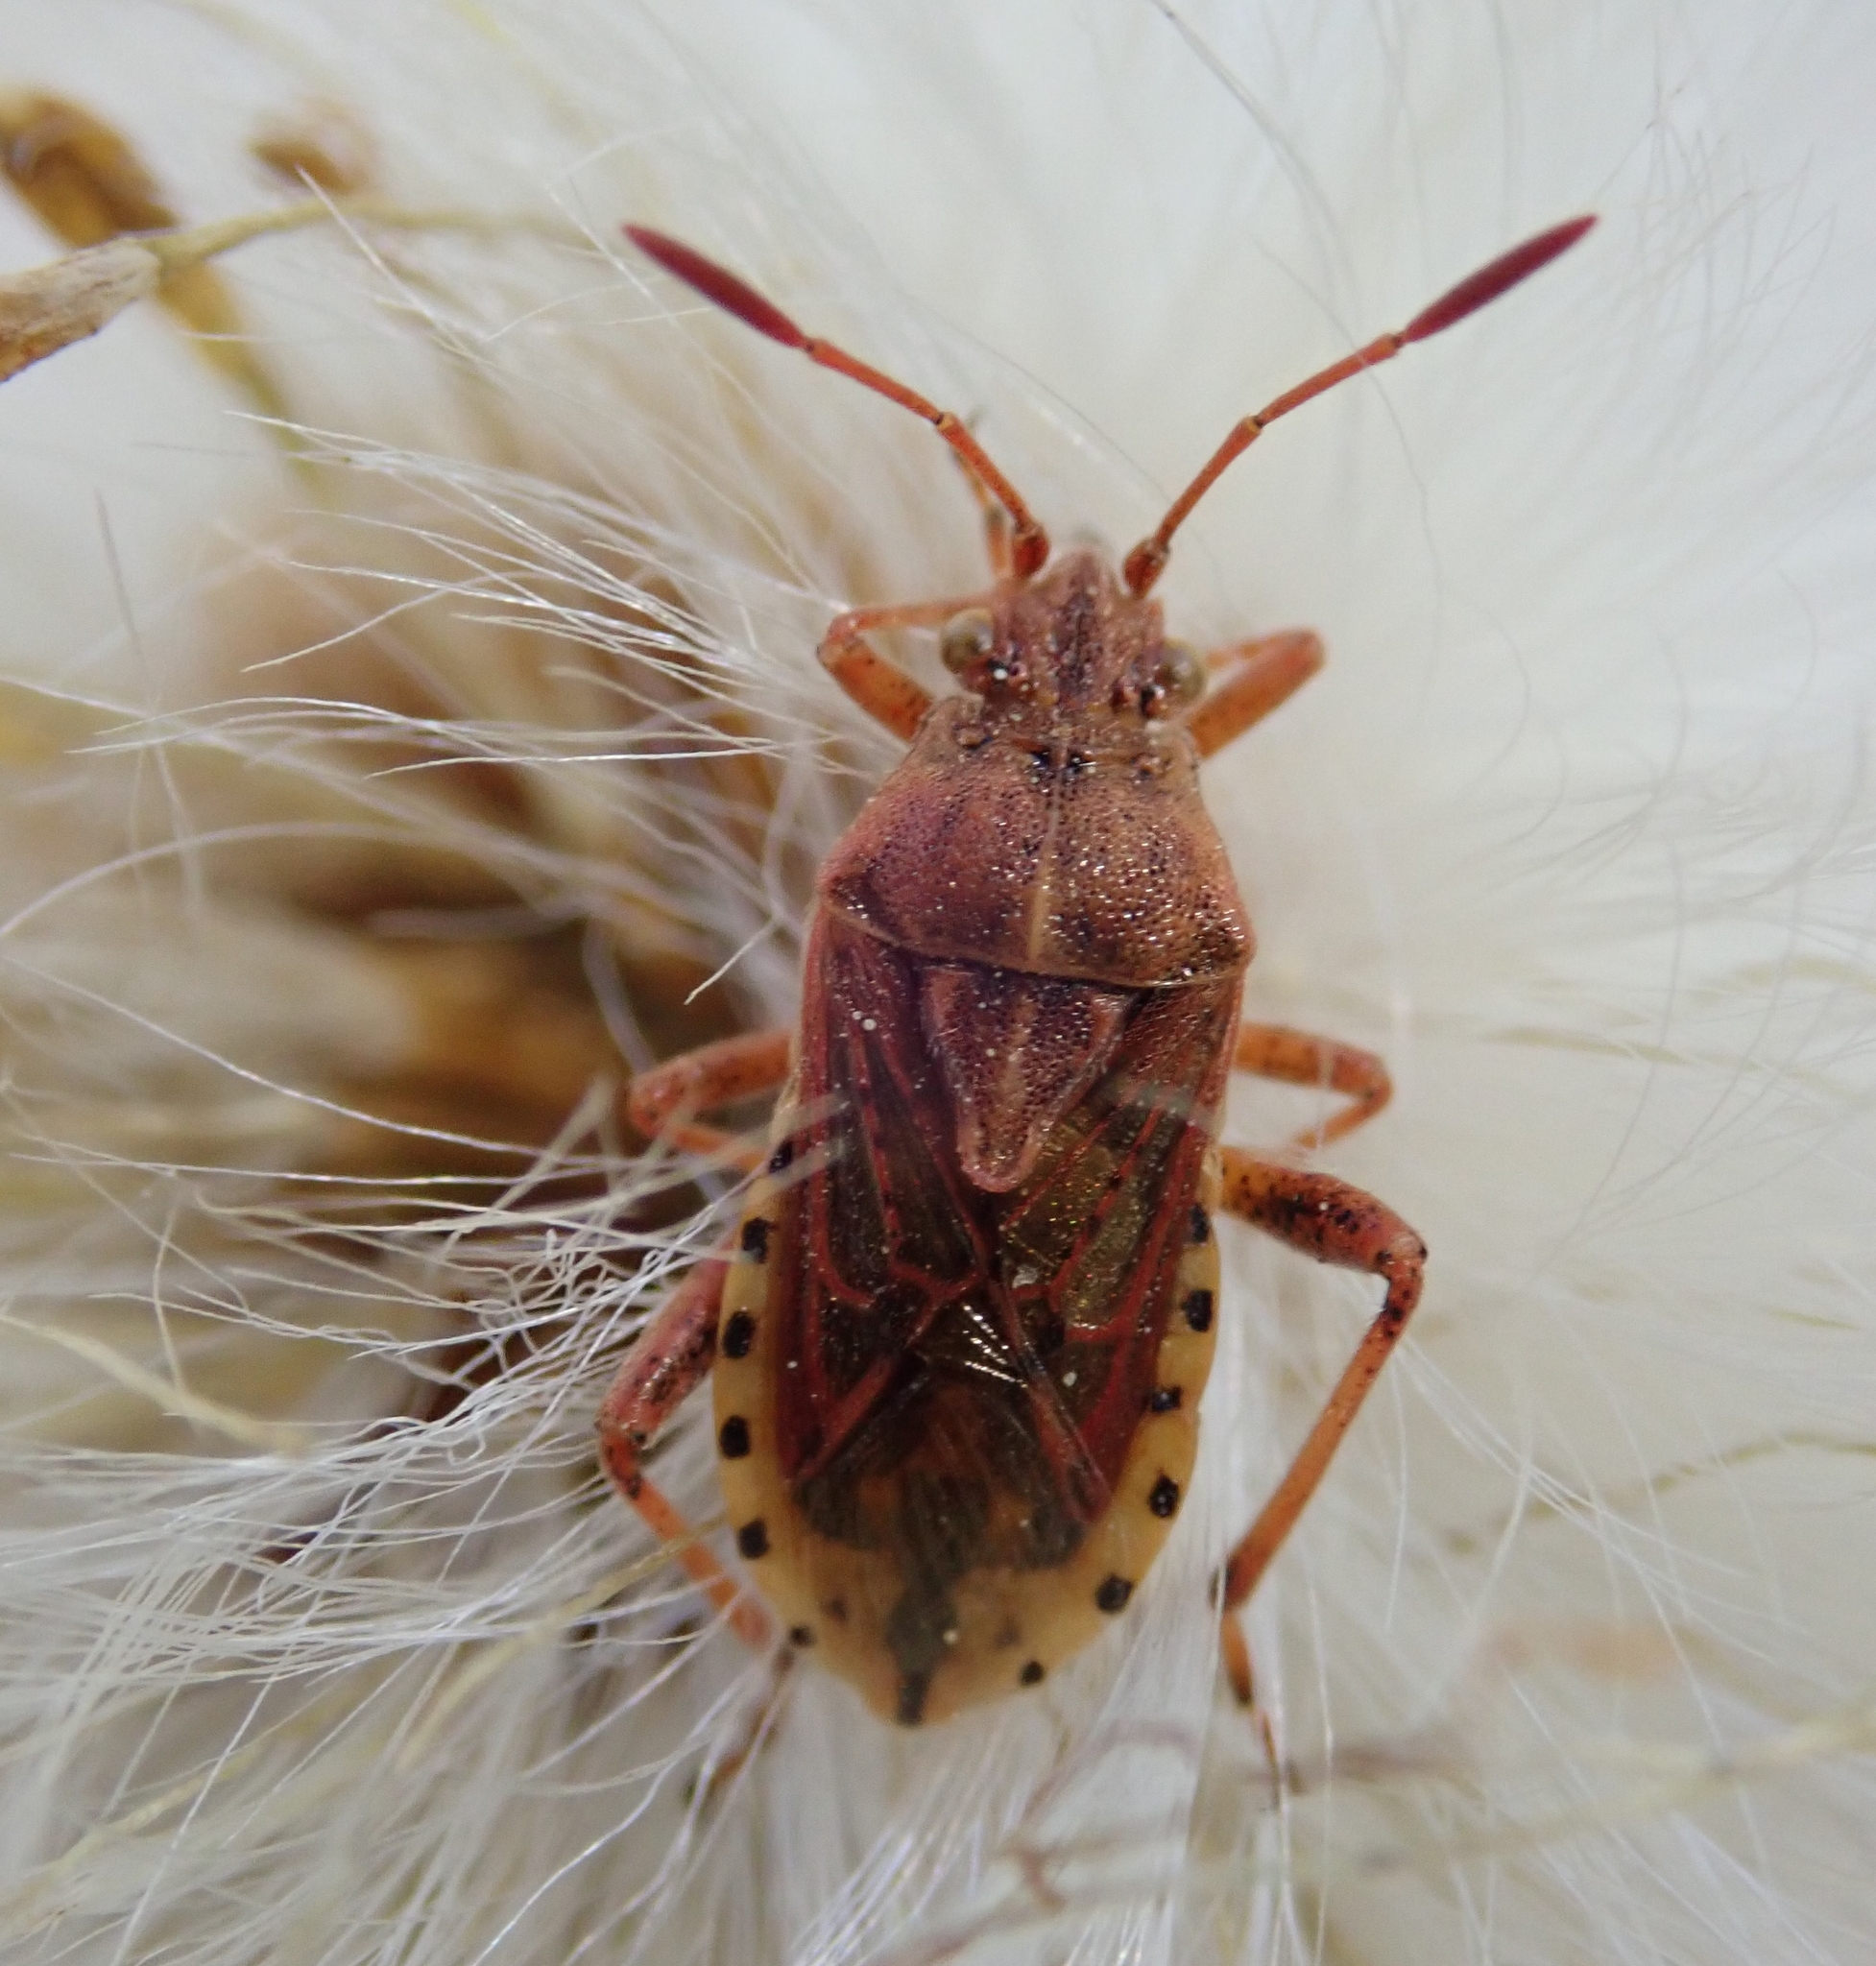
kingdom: Animalia
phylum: Arthropoda
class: Insecta
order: Hemiptera
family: Rhopalidae
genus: Stictopleurus
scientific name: Stictopleurus abutilon
